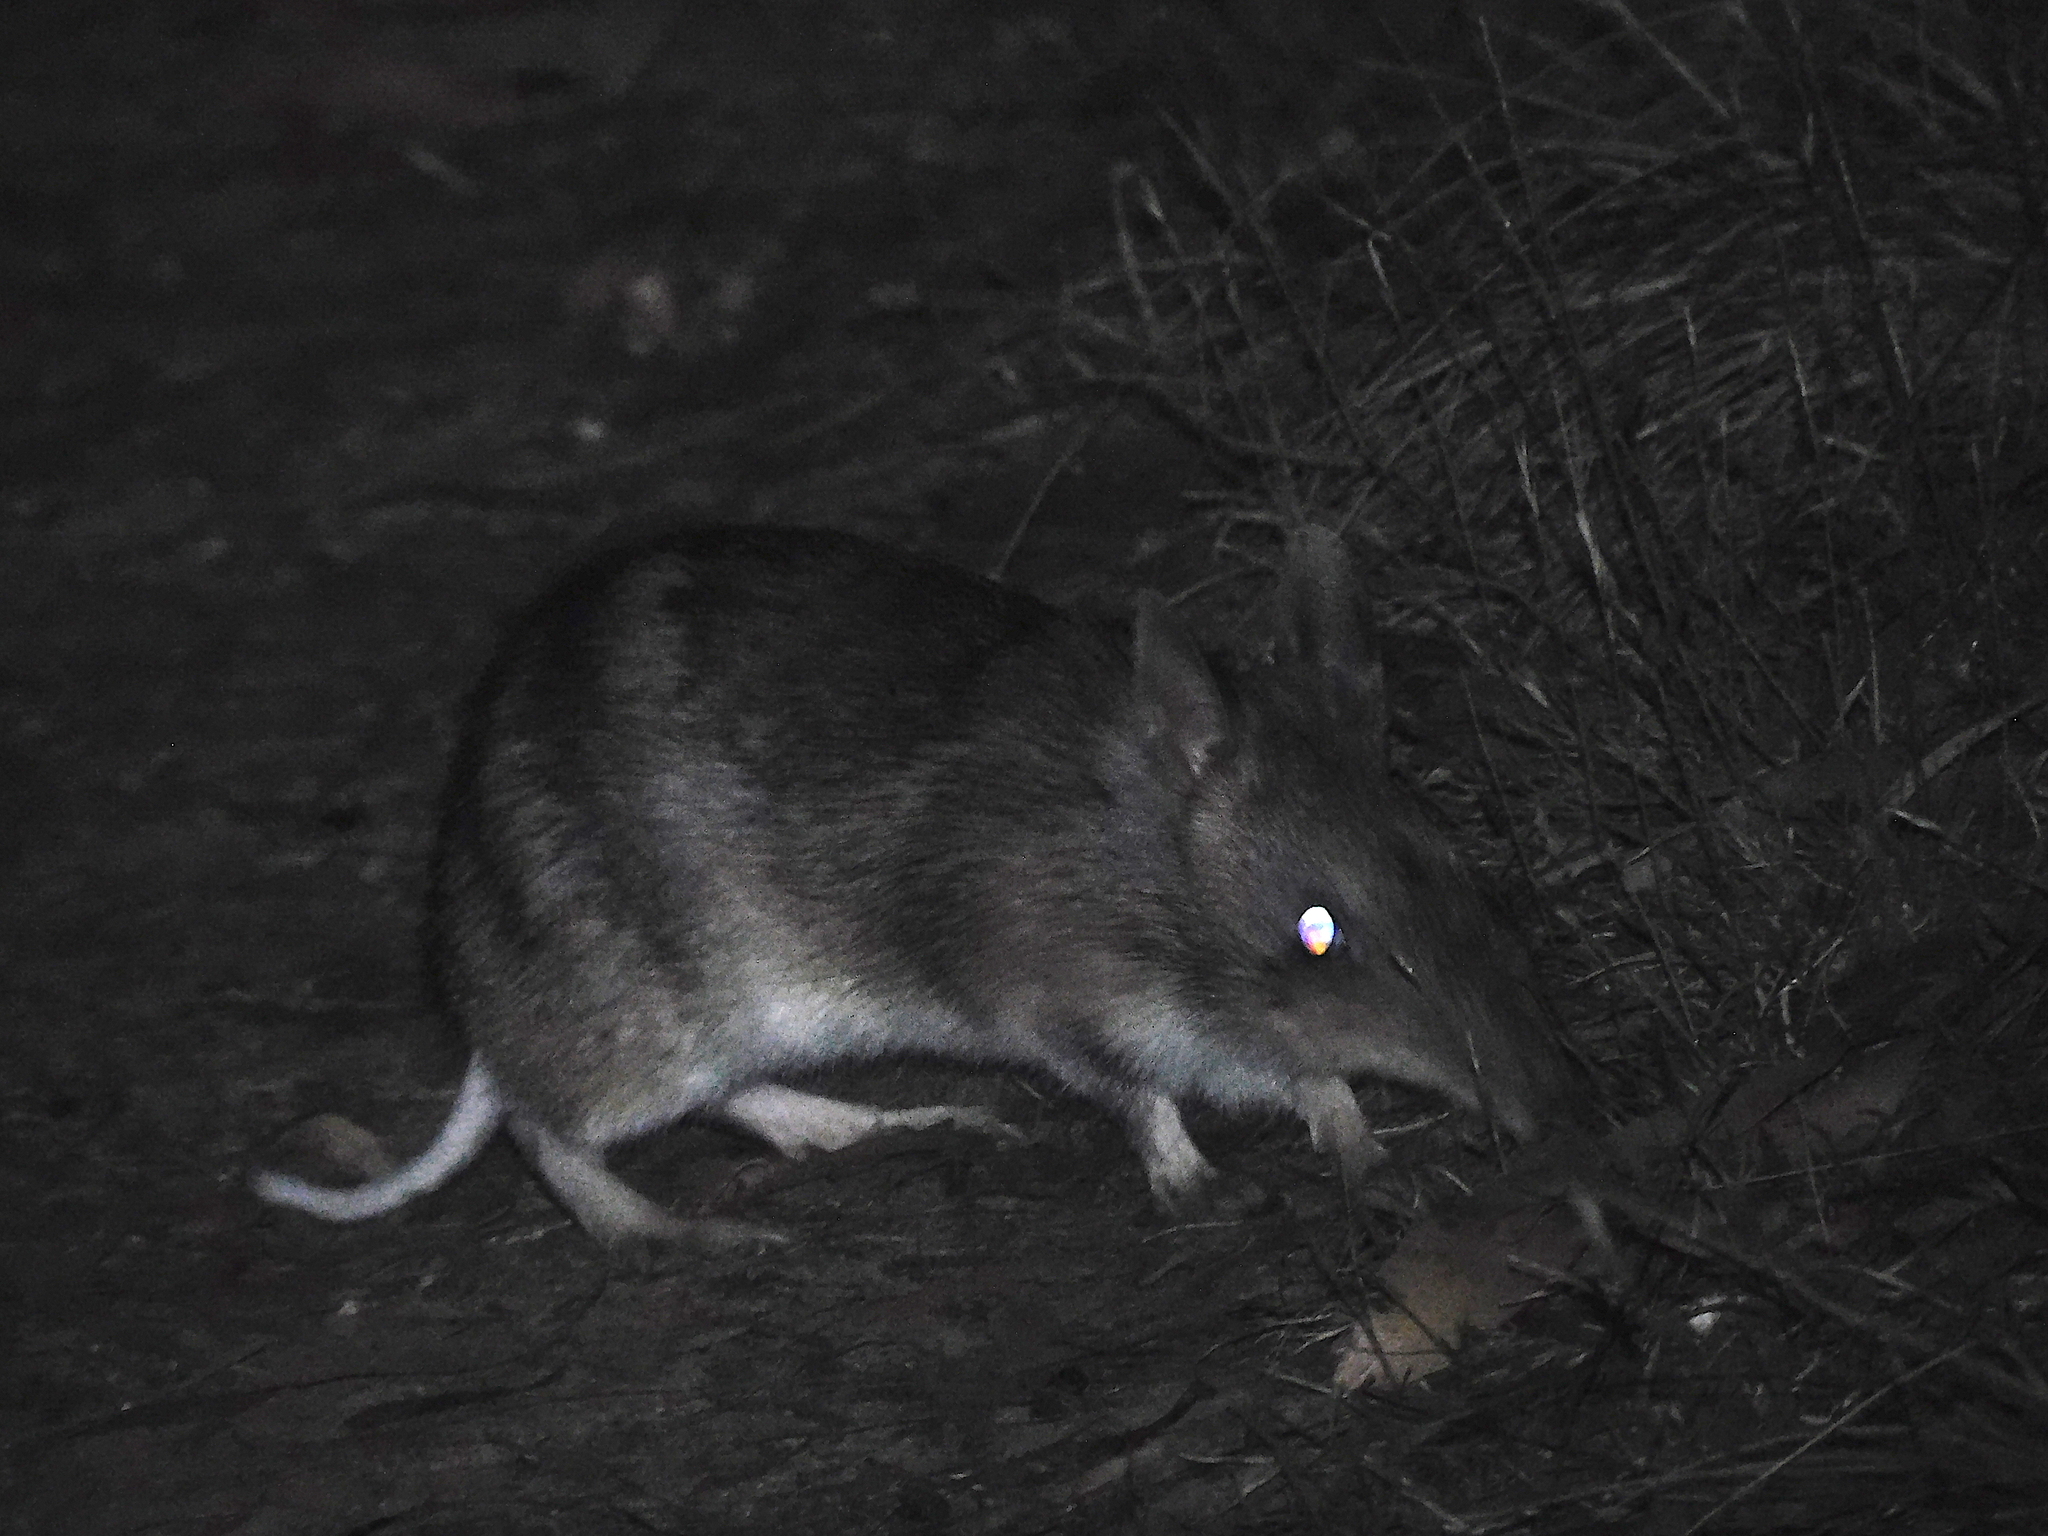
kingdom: Animalia
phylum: Chordata
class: Mammalia
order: Peramelemorphia
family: Peramelidae
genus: Perameles
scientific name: Perameles gunnii
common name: Eastern barred bandicoot
